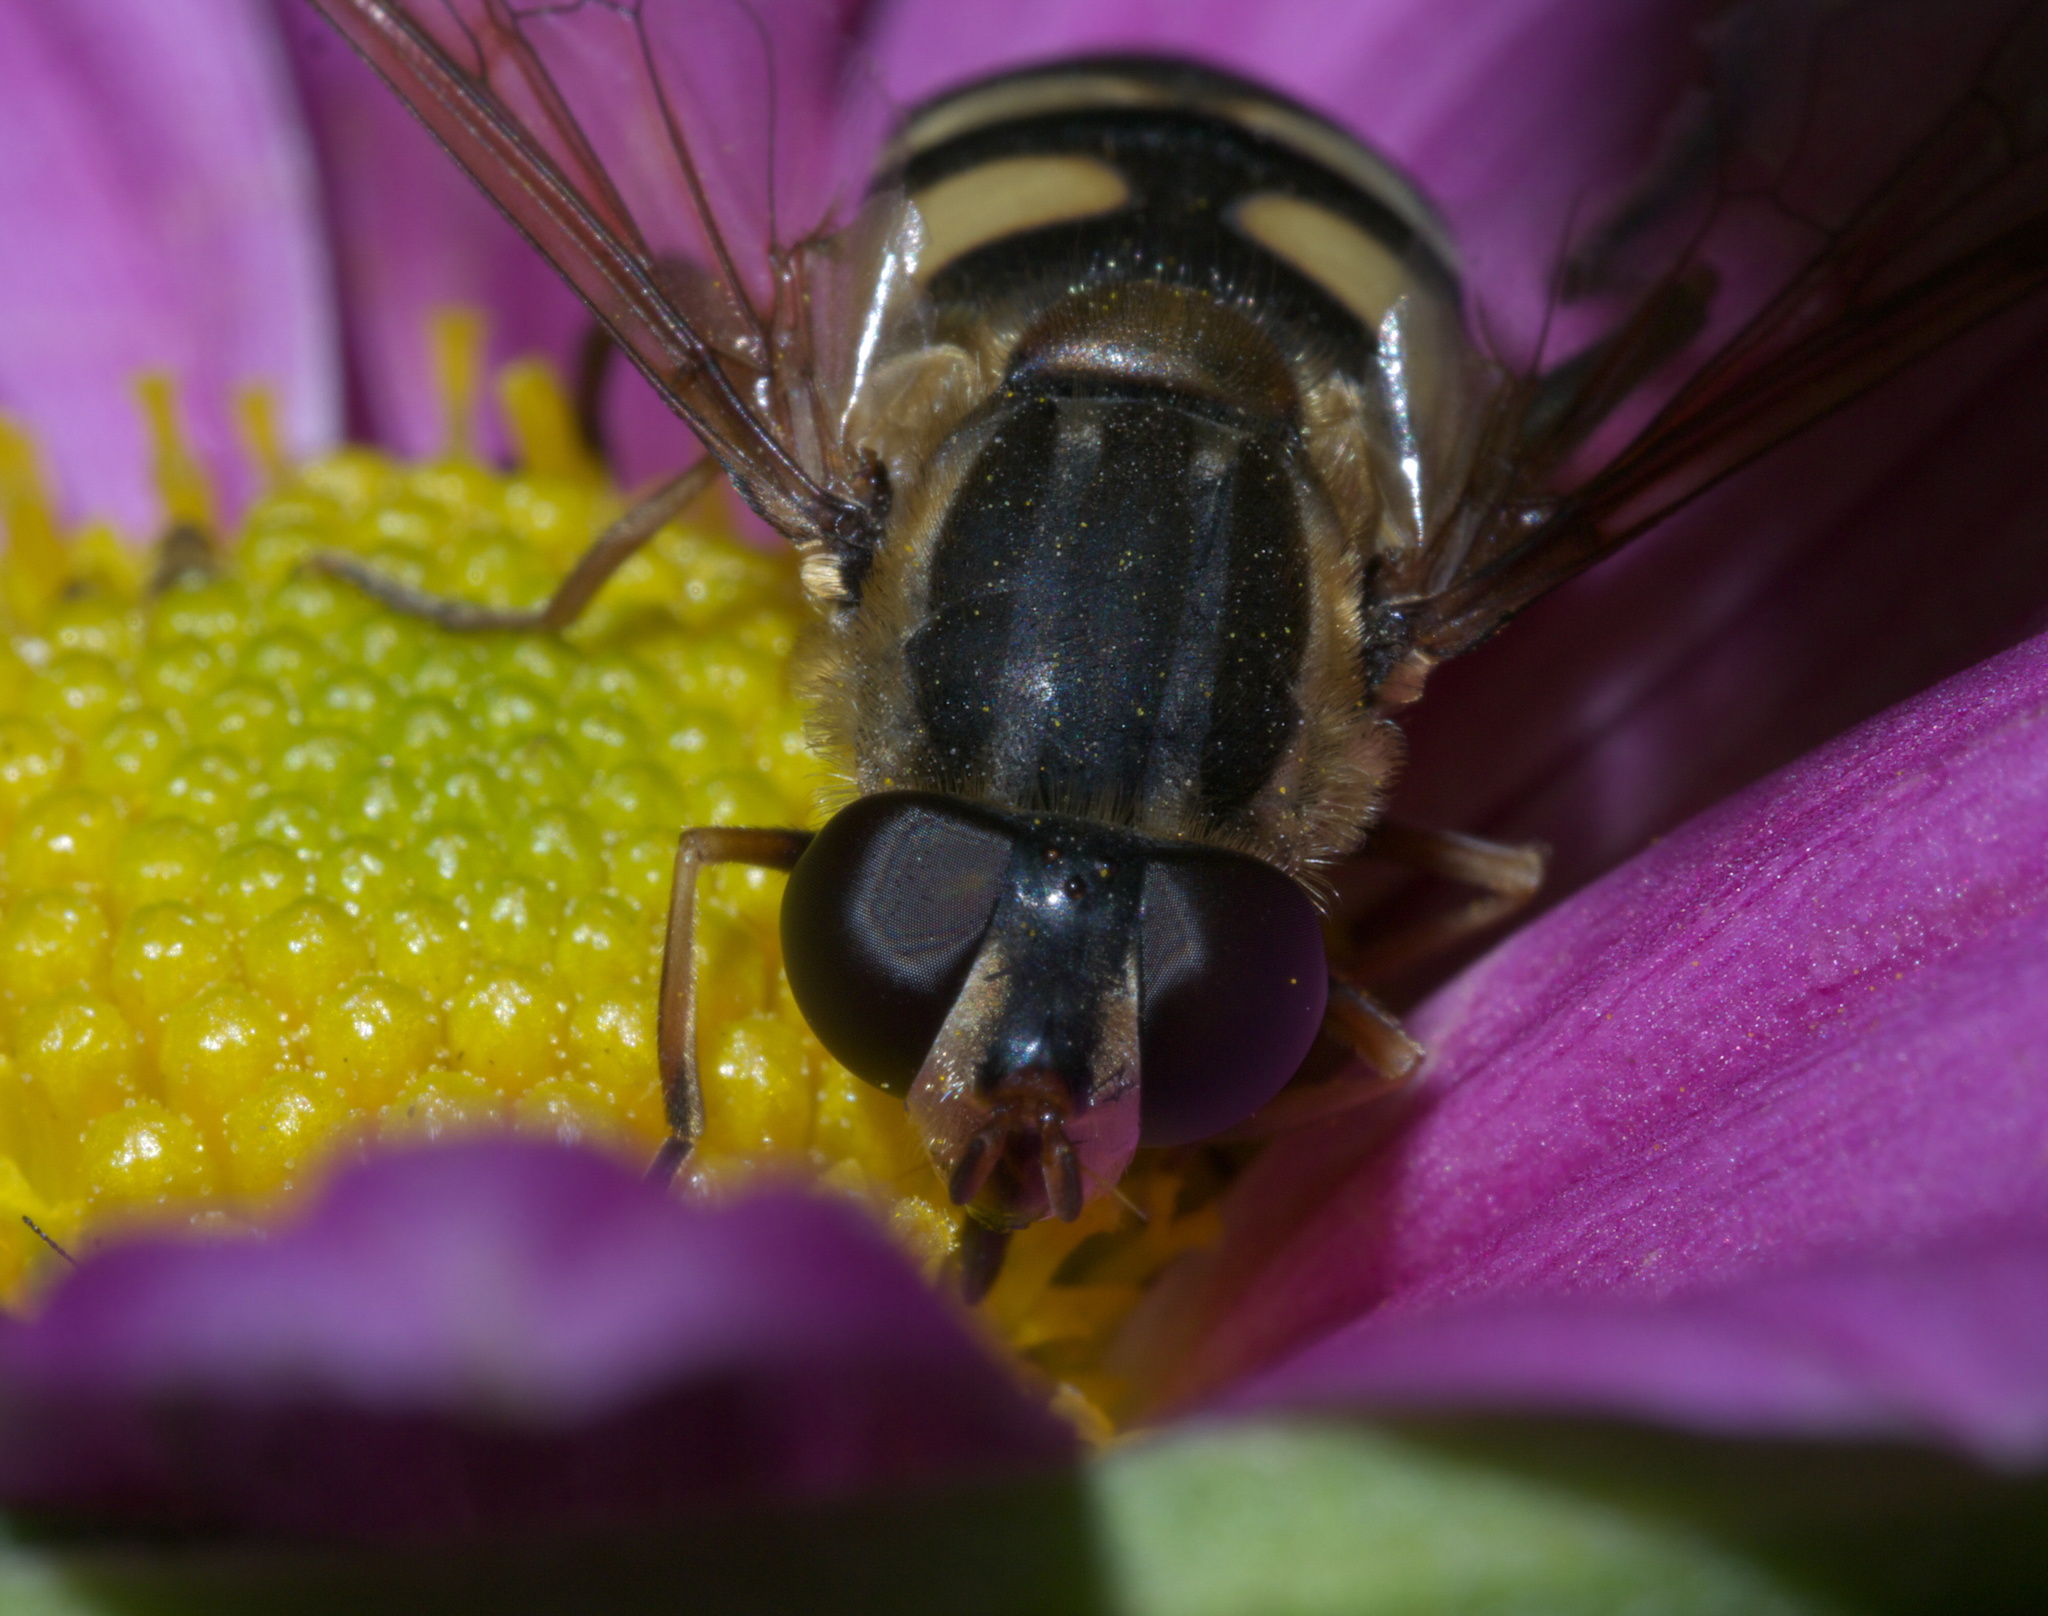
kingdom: Animalia
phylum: Arthropoda
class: Insecta
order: Diptera
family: Syrphidae
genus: Helophilus
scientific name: Helophilus fasciatus
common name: Narrow-headed marsh fly
